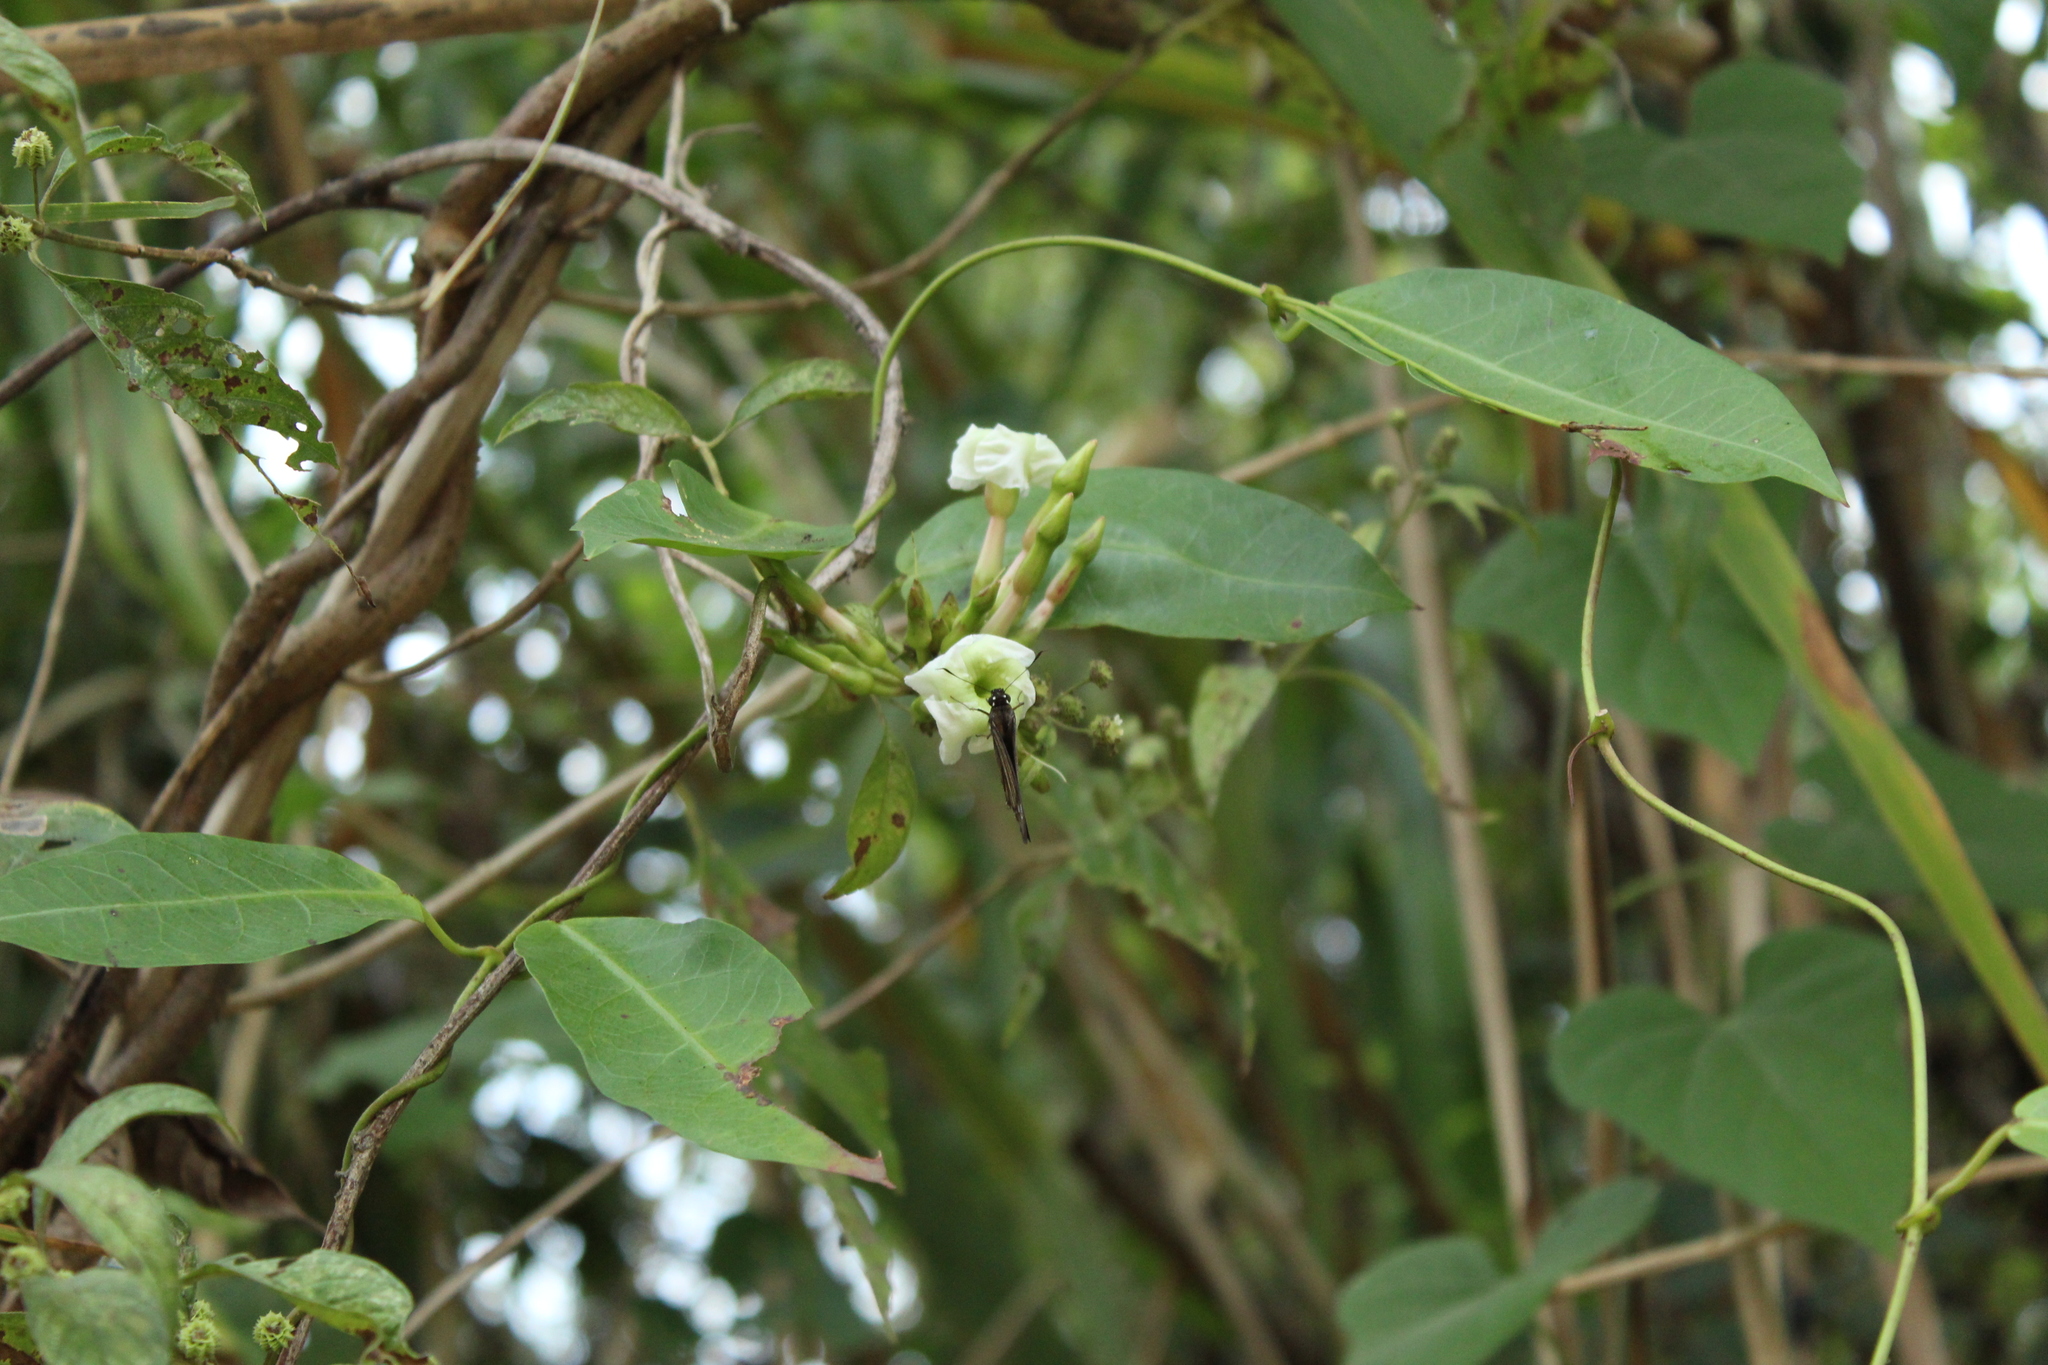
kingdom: Plantae
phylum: Tracheophyta
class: Magnoliopsida
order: Gentianales
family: Apocynaceae
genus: Mesechites
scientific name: Mesechites trifidus
